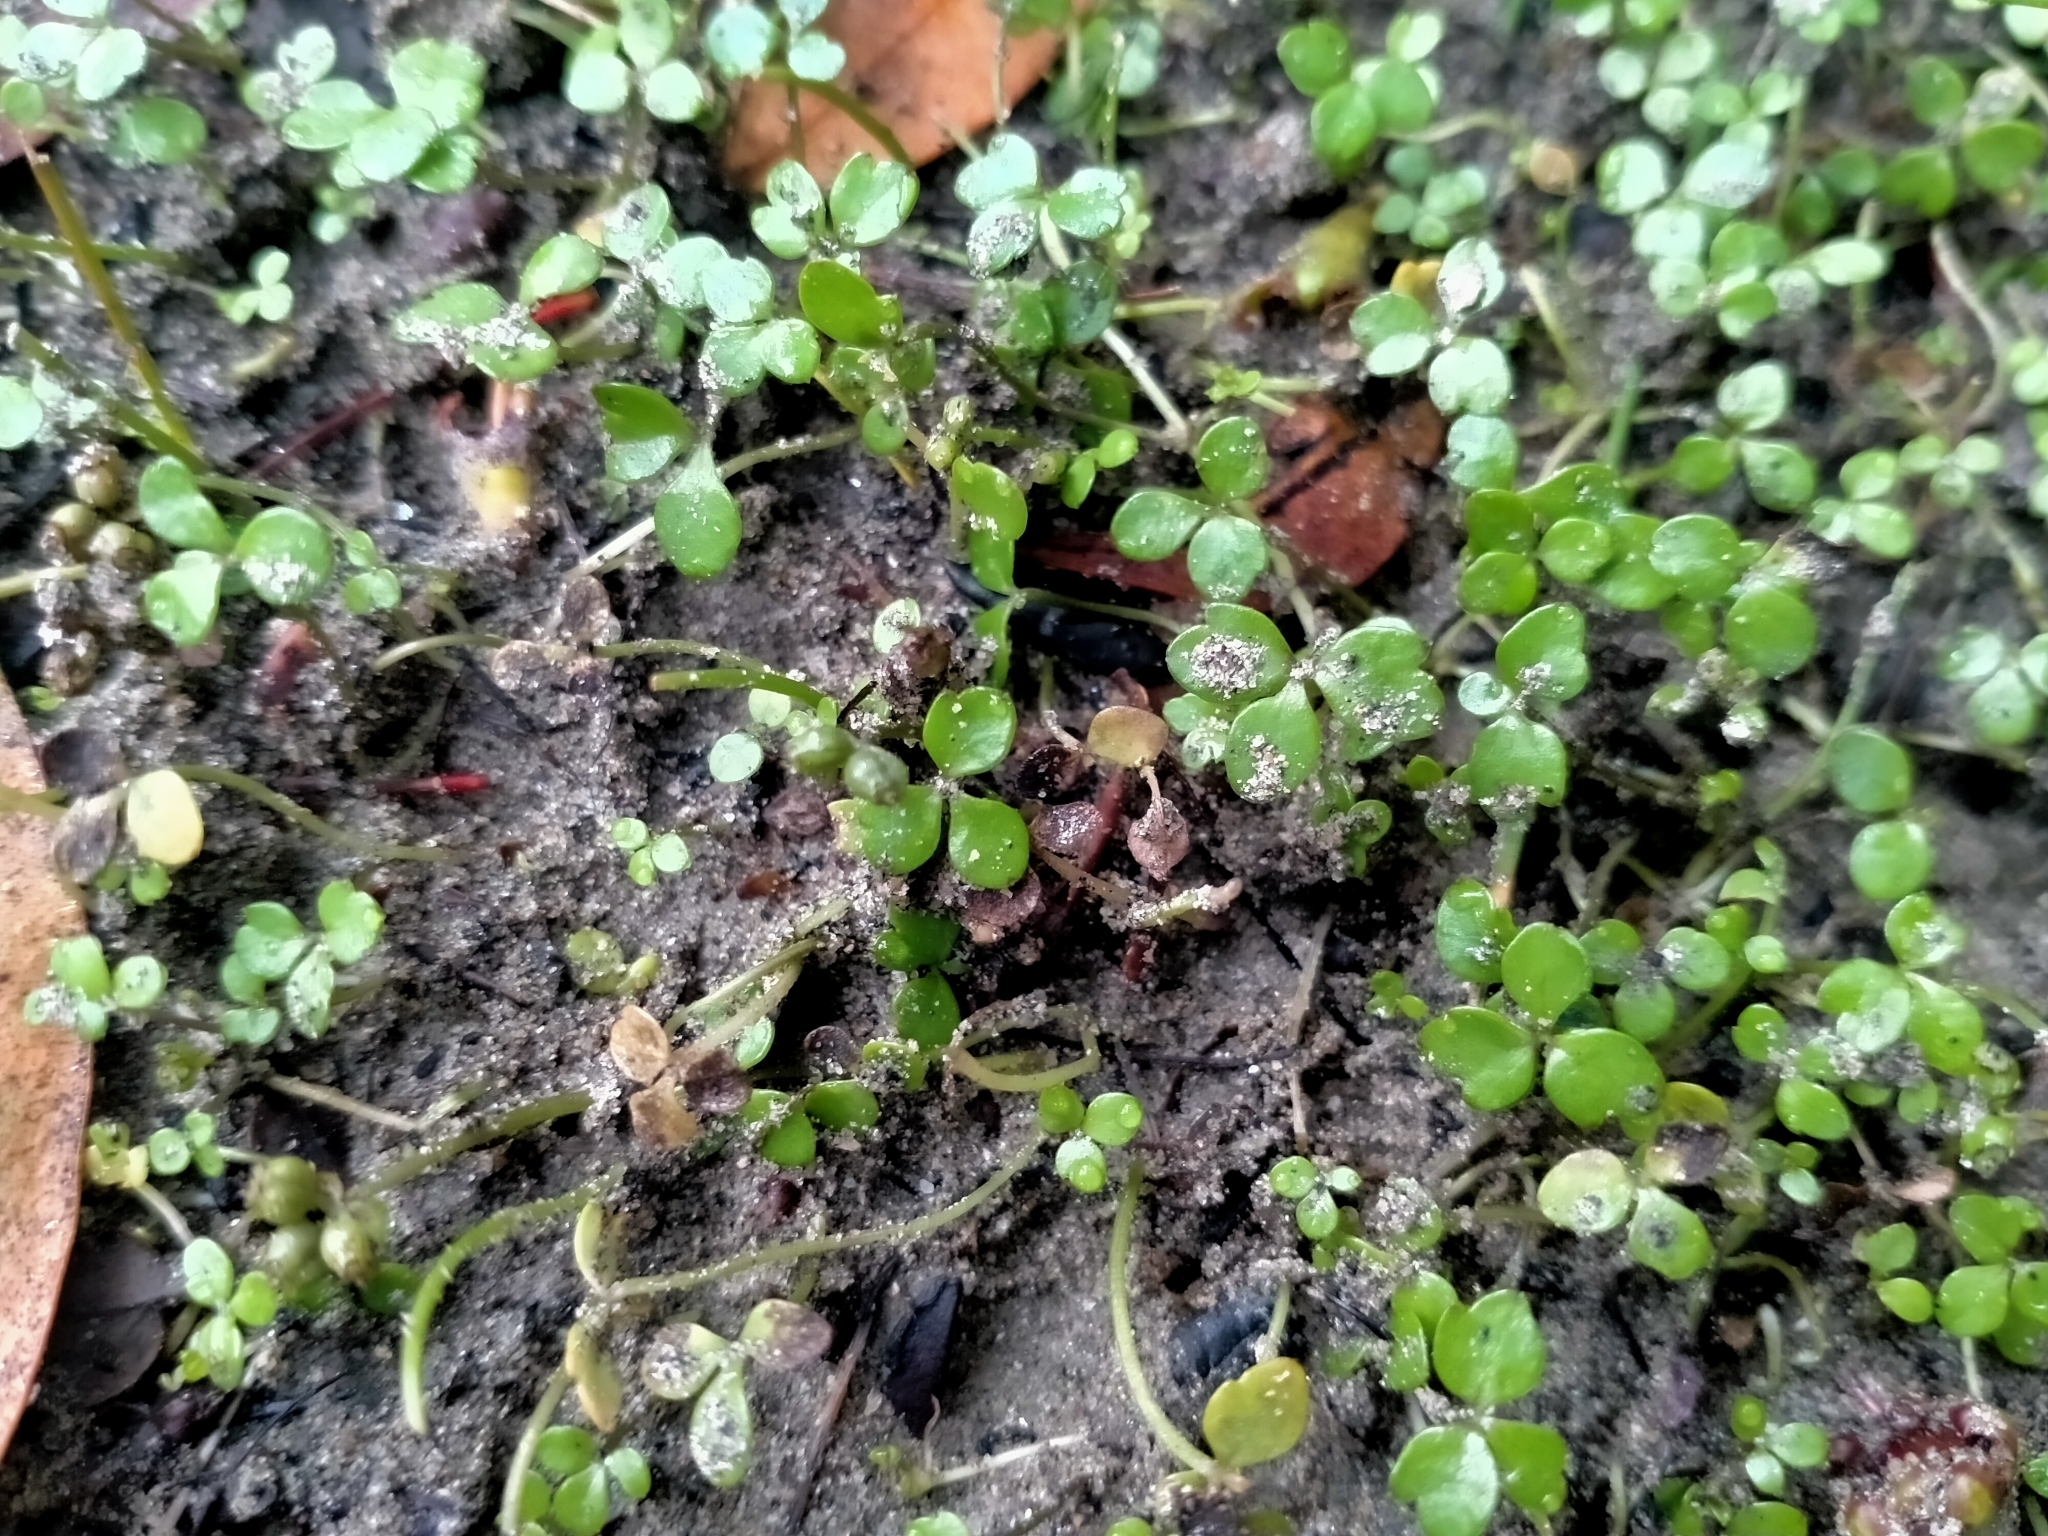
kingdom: Plantae
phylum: Tracheophyta
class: Magnoliopsida
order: Apiales
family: Apiaceae
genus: Azorella
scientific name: Azorella nitens
